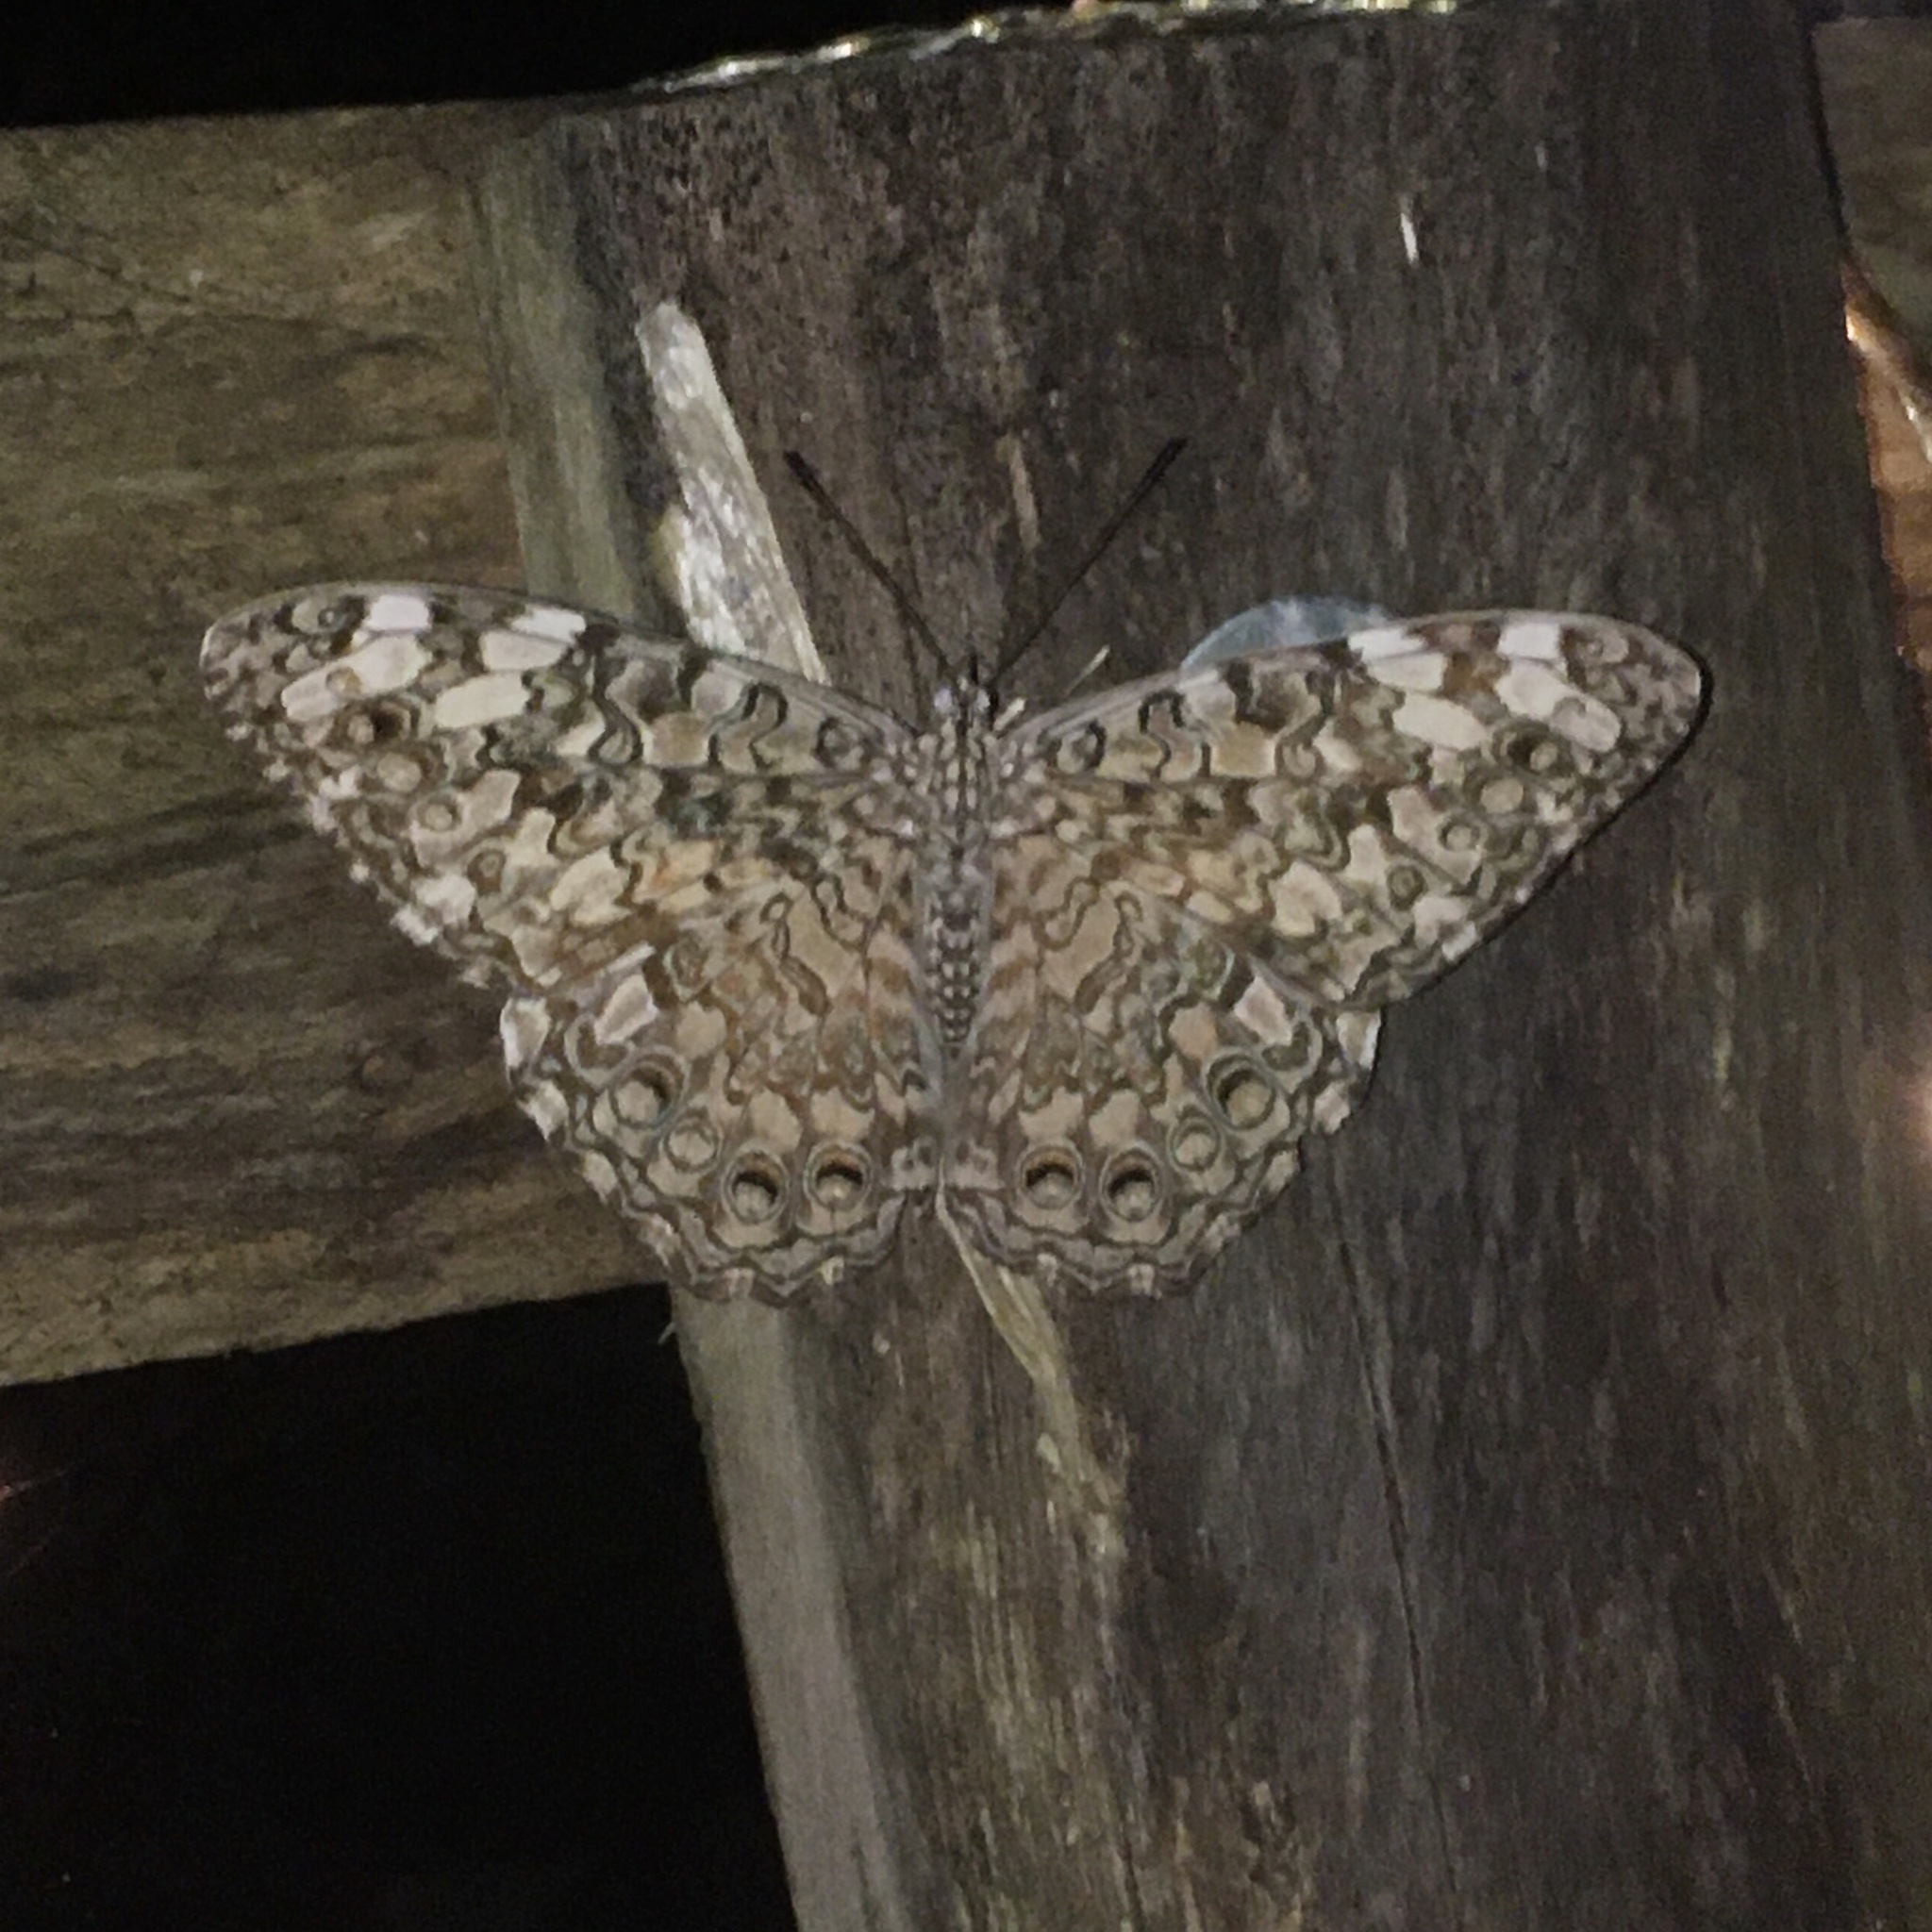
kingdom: Animalia
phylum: Arthropoda
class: Insecta
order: Lepidoptera
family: Nymphalidae
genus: Hamadryas
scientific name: Hamadryas februa
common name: Gray cracker
